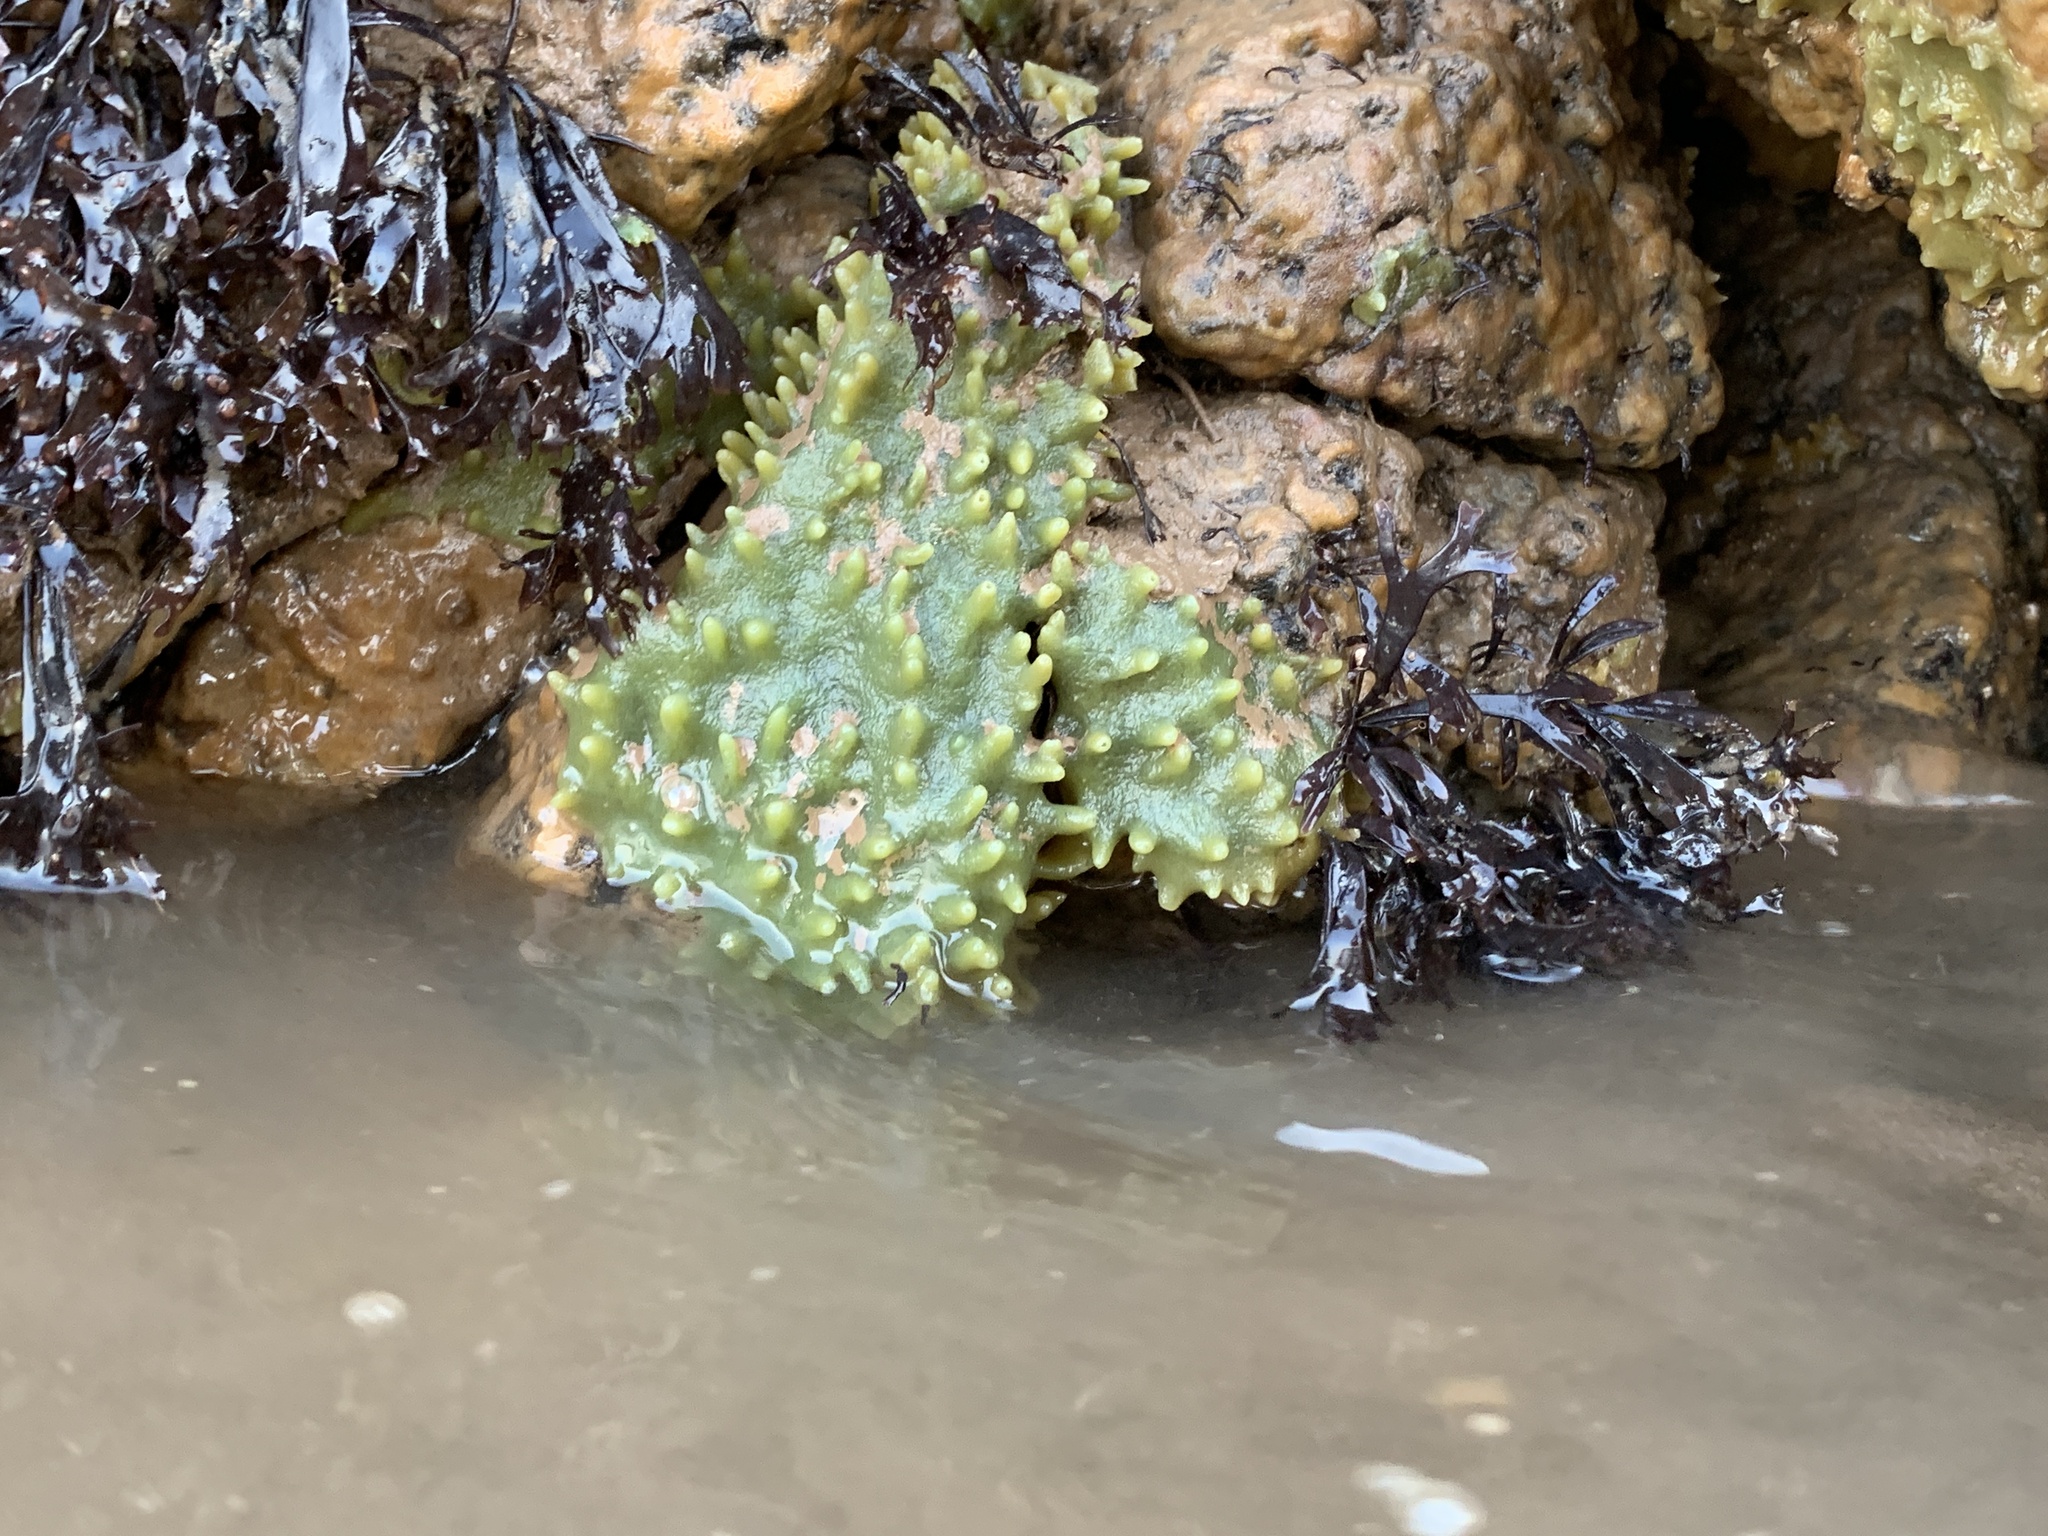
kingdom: Animalia
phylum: Porifera
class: Demospongiae
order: Suberitida
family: Halichondriidae
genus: Halichondria
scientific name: Halichondria panicea
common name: Breadcrumb sponge
